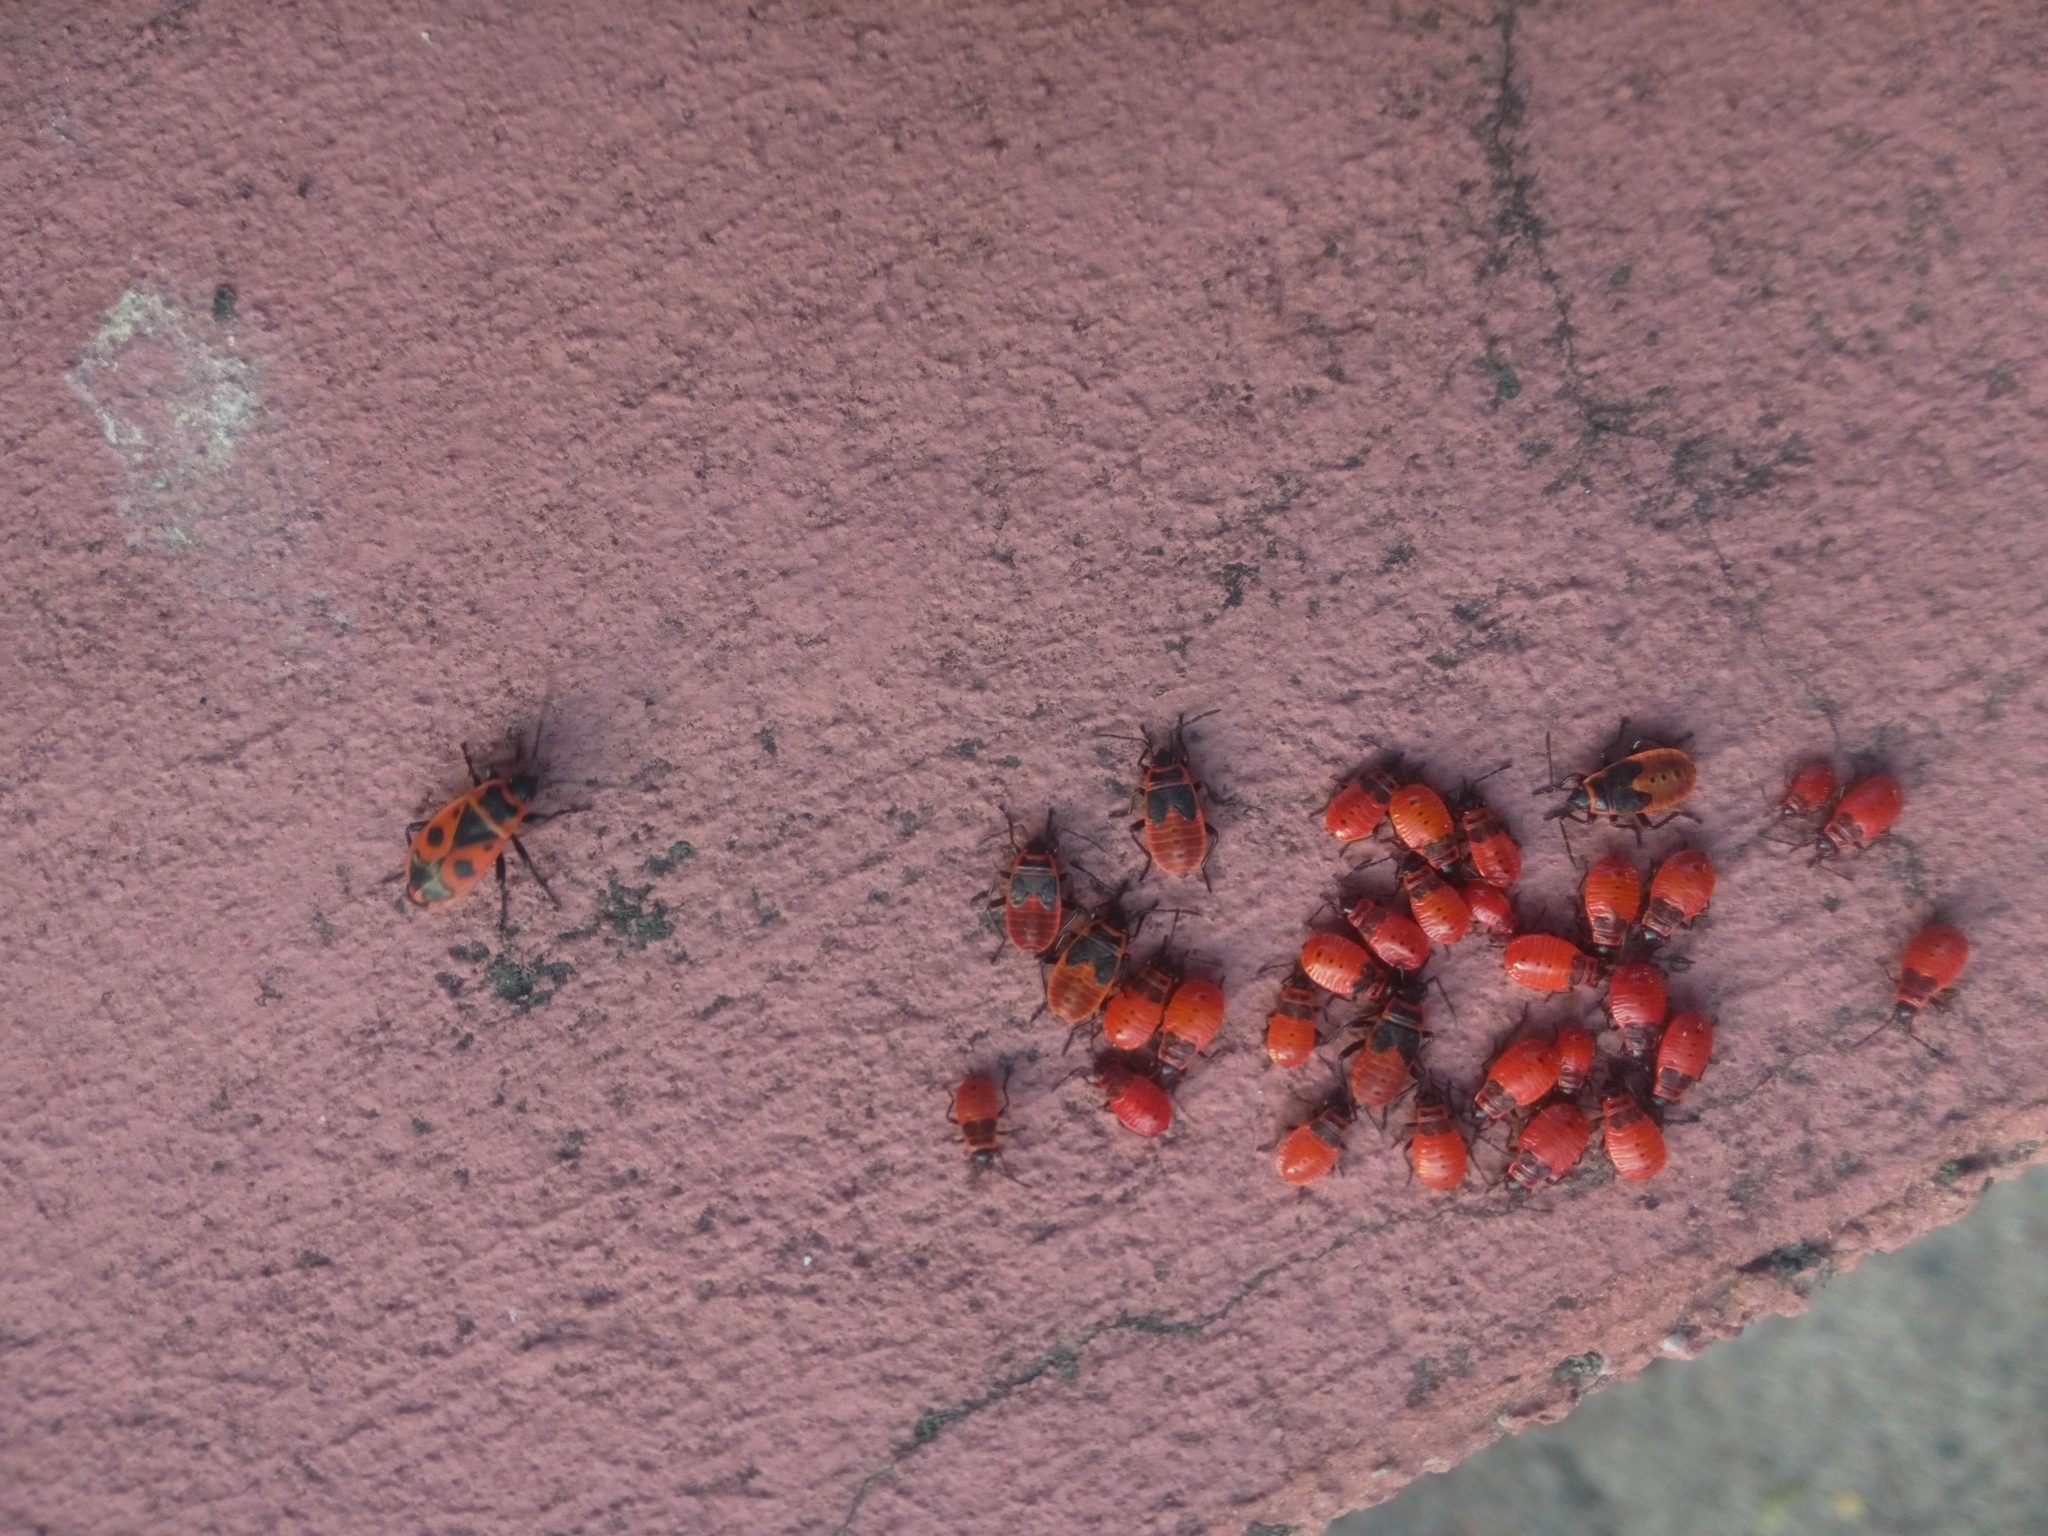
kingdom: Animalia
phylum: Arthropoda
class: Insecta
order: Hemiptera
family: Pyrrhocoridae
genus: Pyrrhocoris
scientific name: Pyrrhocoris apterus
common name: Firebug
